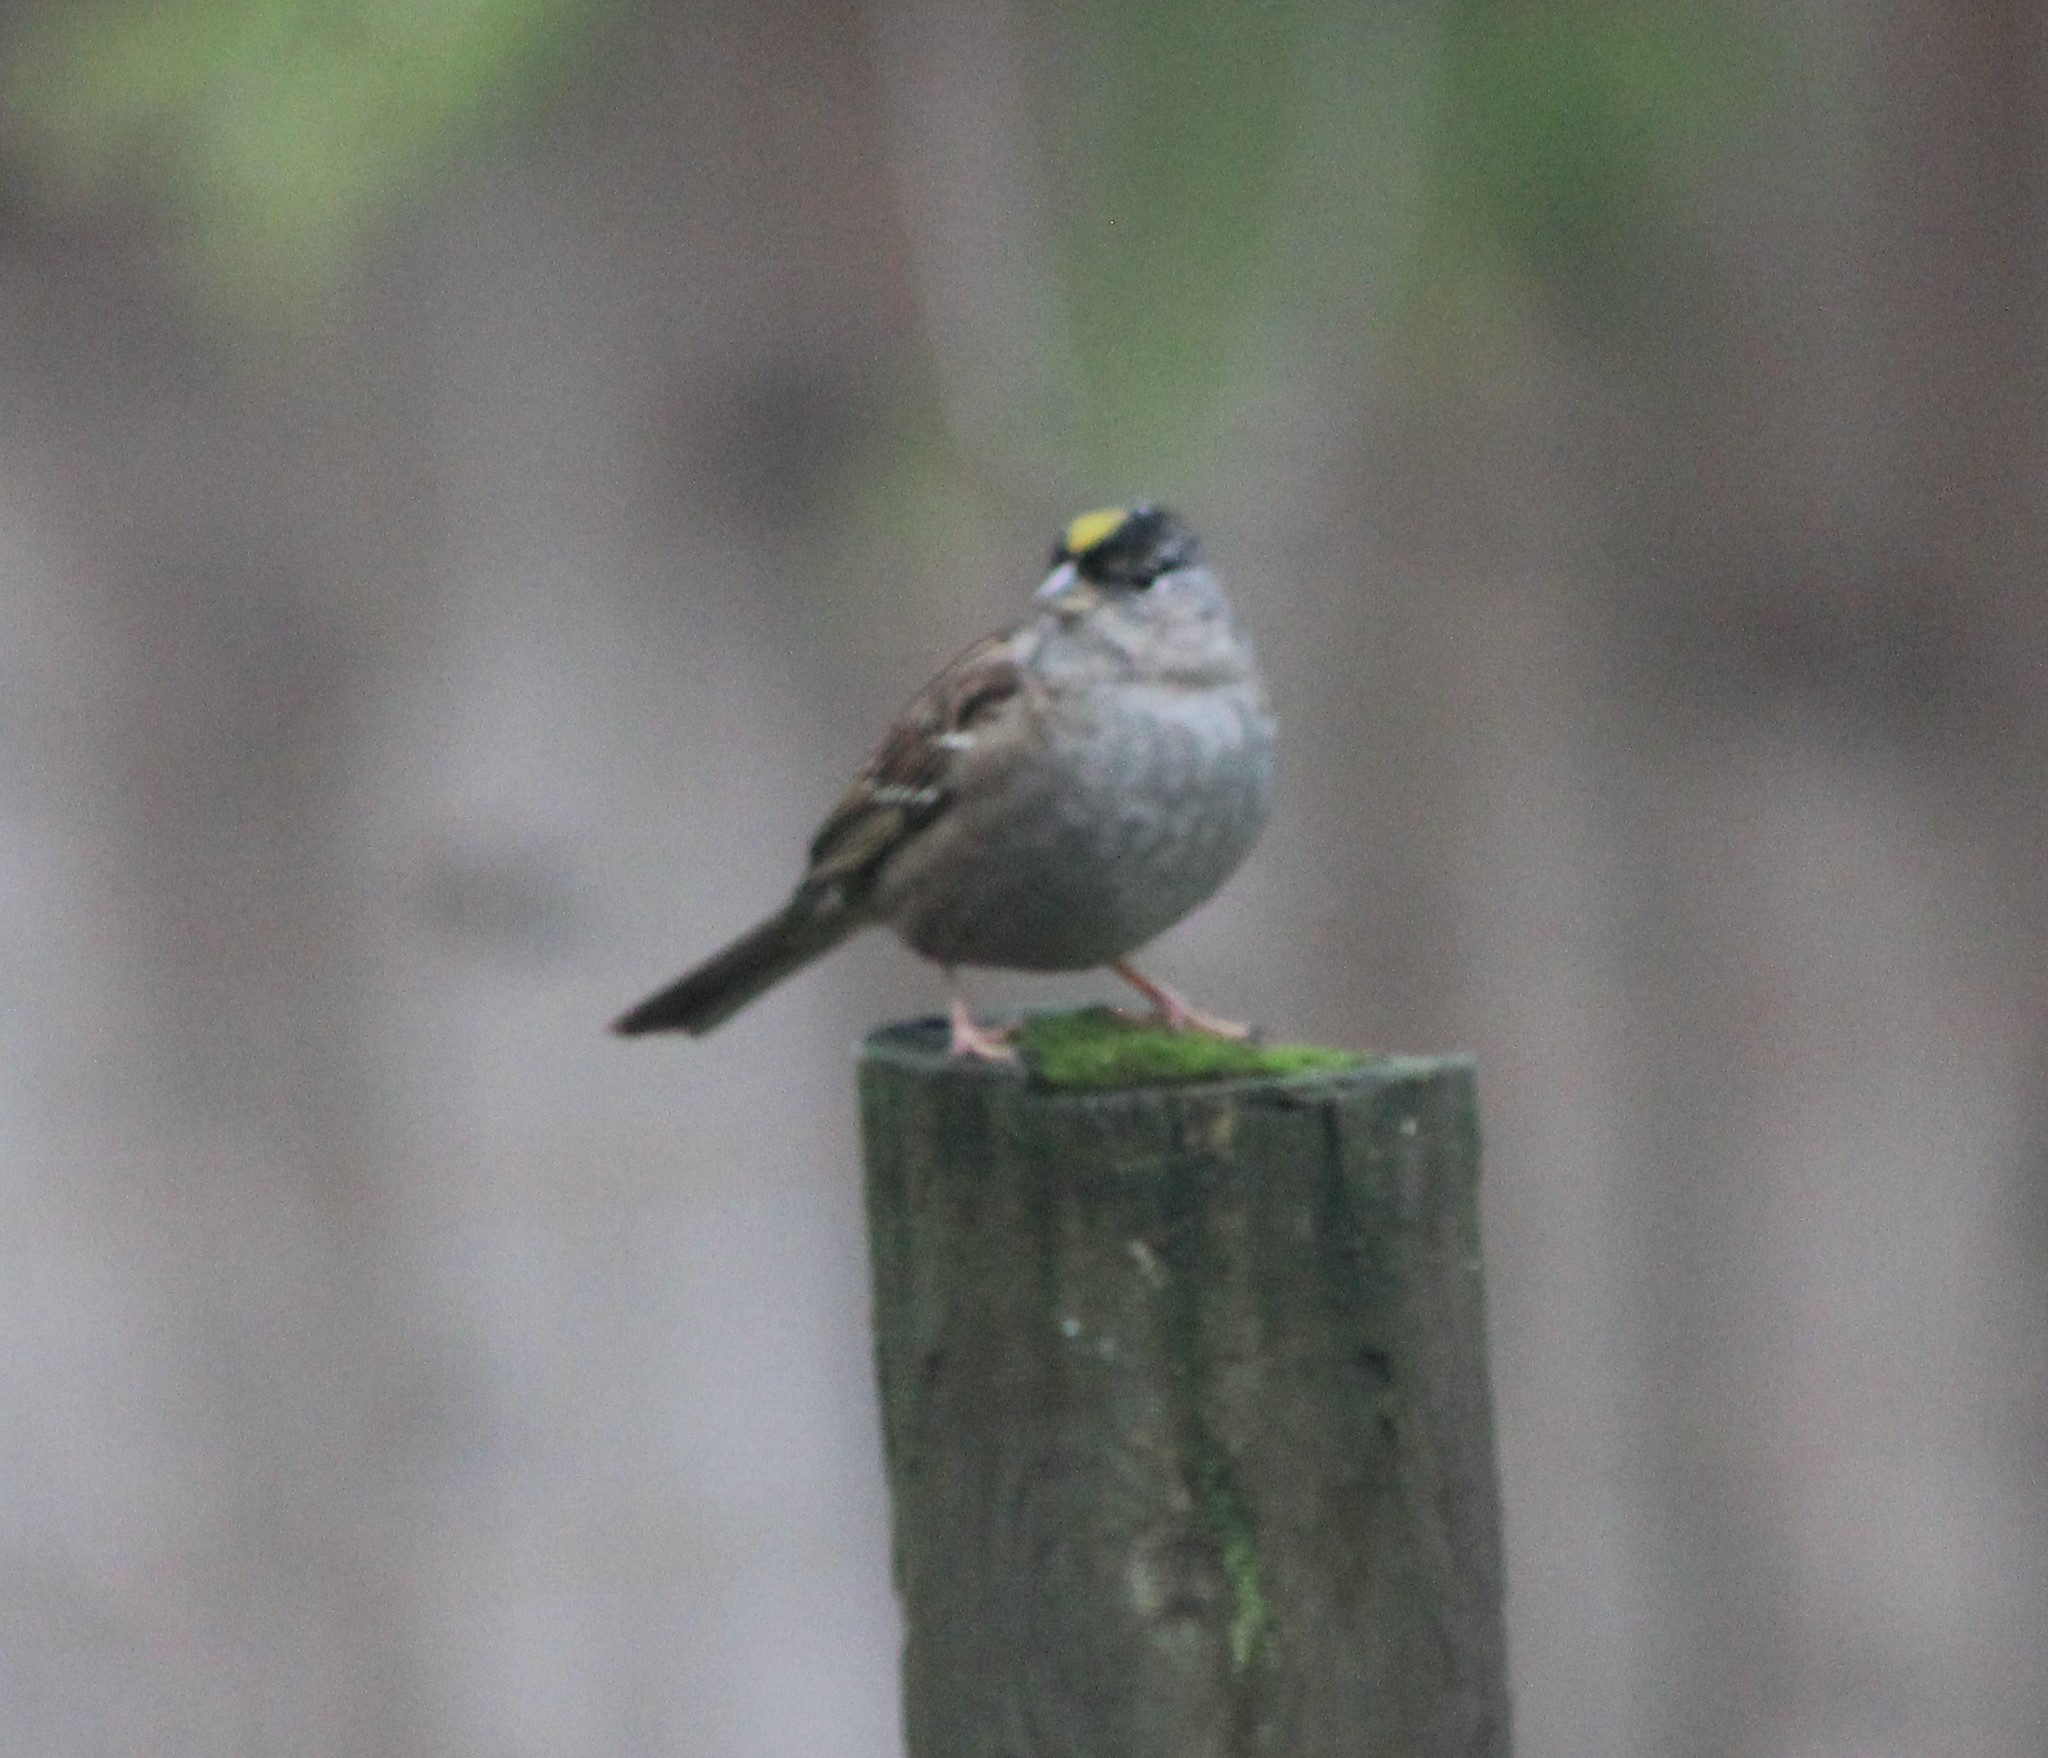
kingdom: Animalia
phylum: Chordata
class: Aves
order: Passeriformes
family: Passerellidae
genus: Zonotrichia
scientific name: Zonotrichia atricapilla
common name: Golden-crowned sparrow
